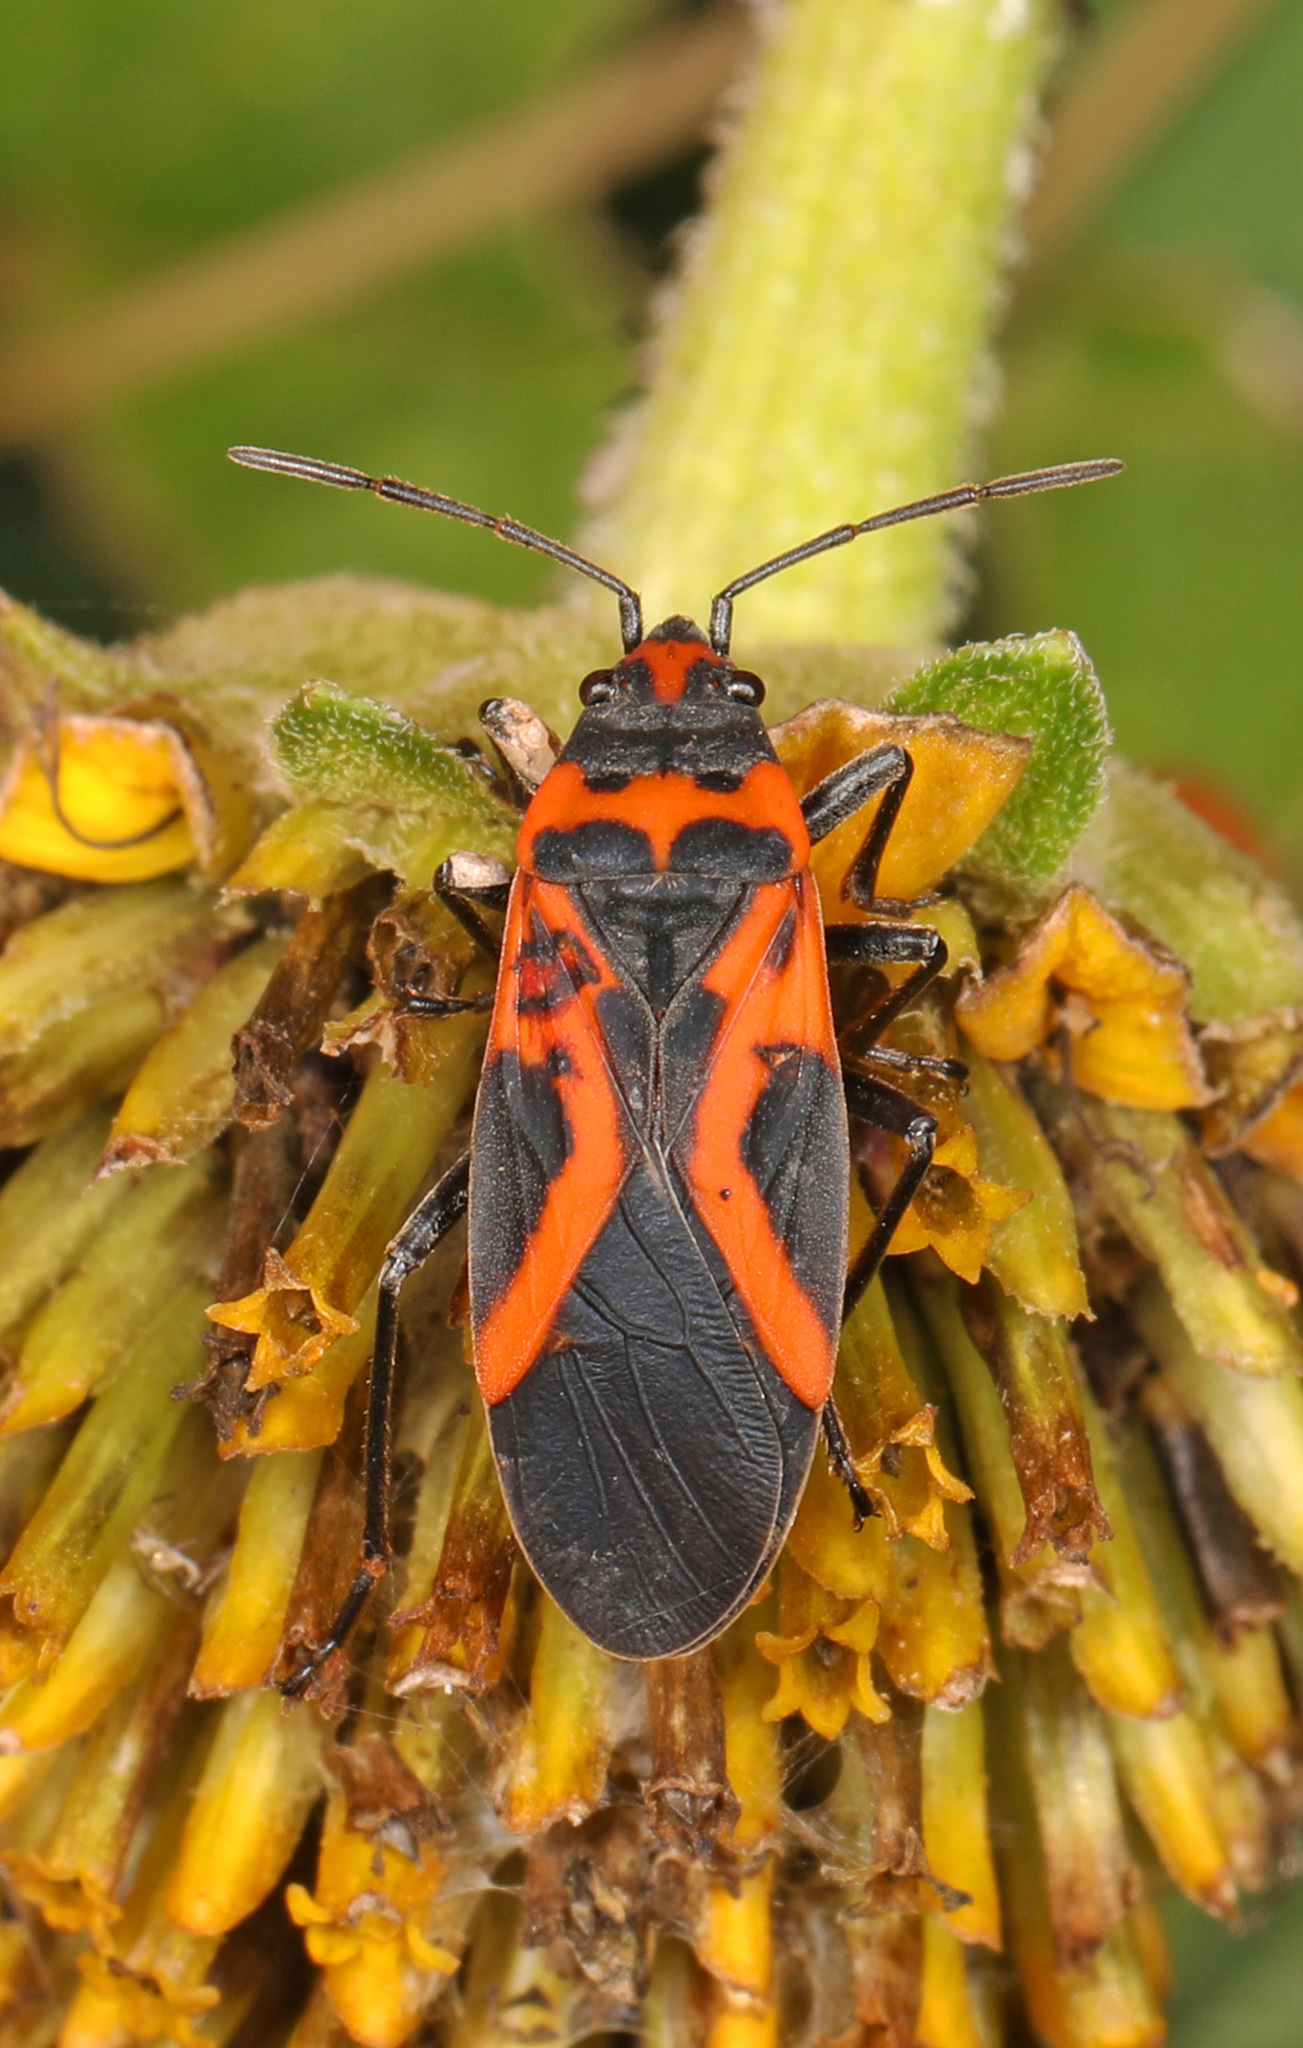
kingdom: Animalia
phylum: Arthropoda
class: Insecta
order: Hemiptera
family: Lygaeidae
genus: Lygaeus
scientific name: Lygaeus turcicus
